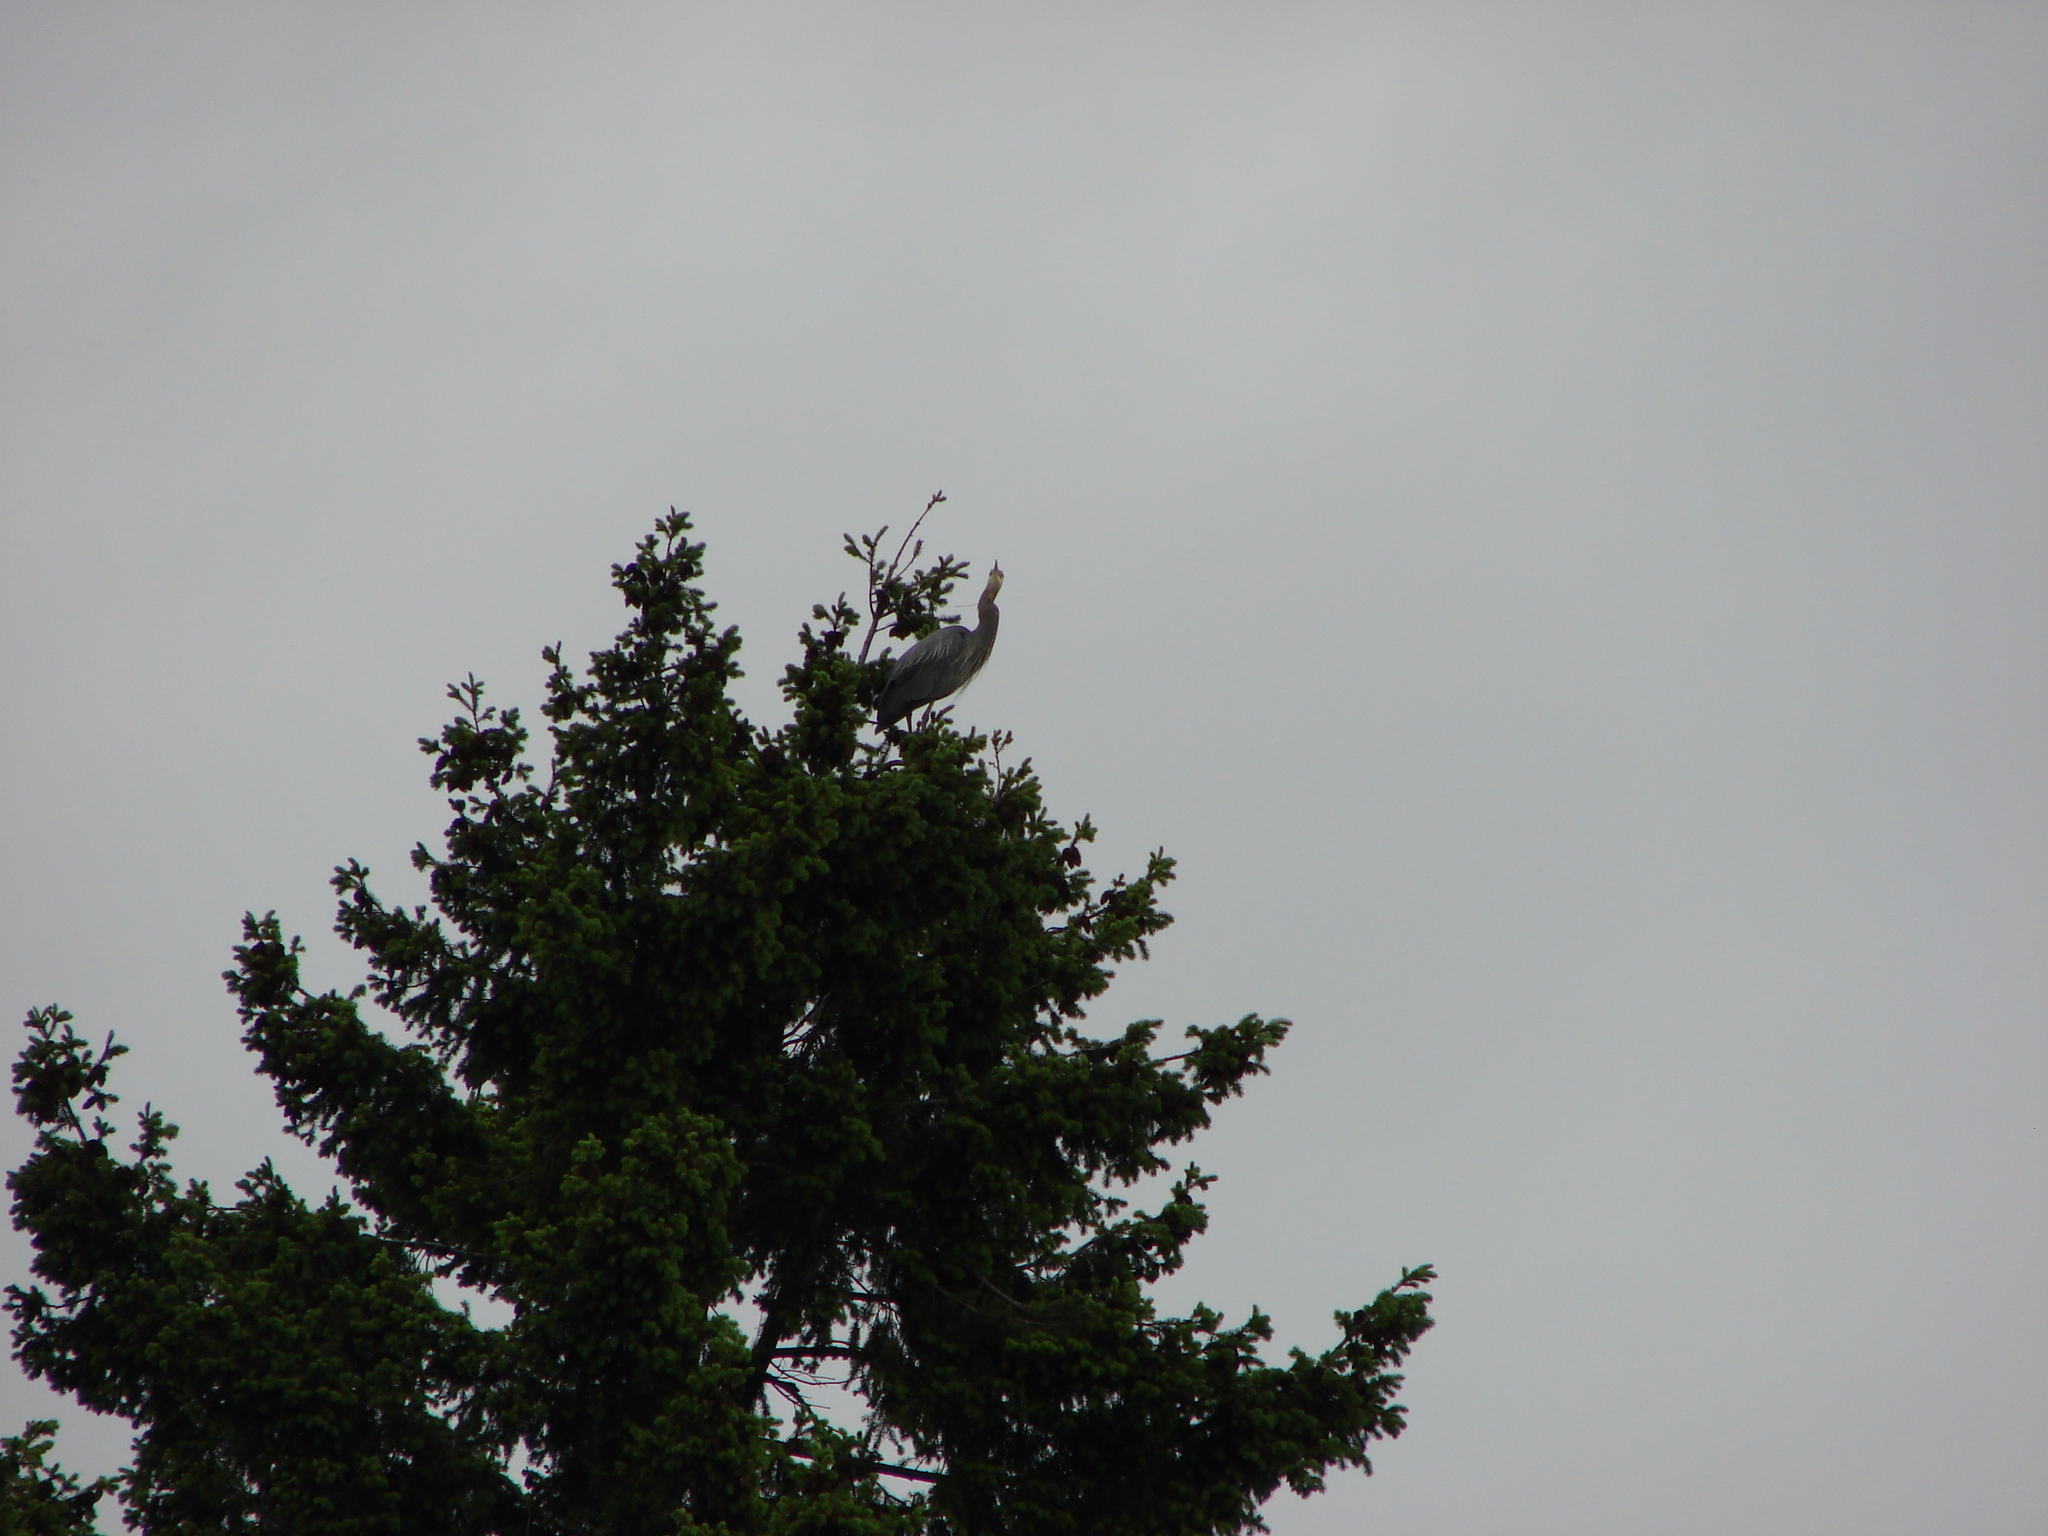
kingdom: Animalia
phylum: Chordata
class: Aves
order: Pelecaniformes
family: Ardeidae
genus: Ardea
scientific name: Ardea herodias
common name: Great blue heron
